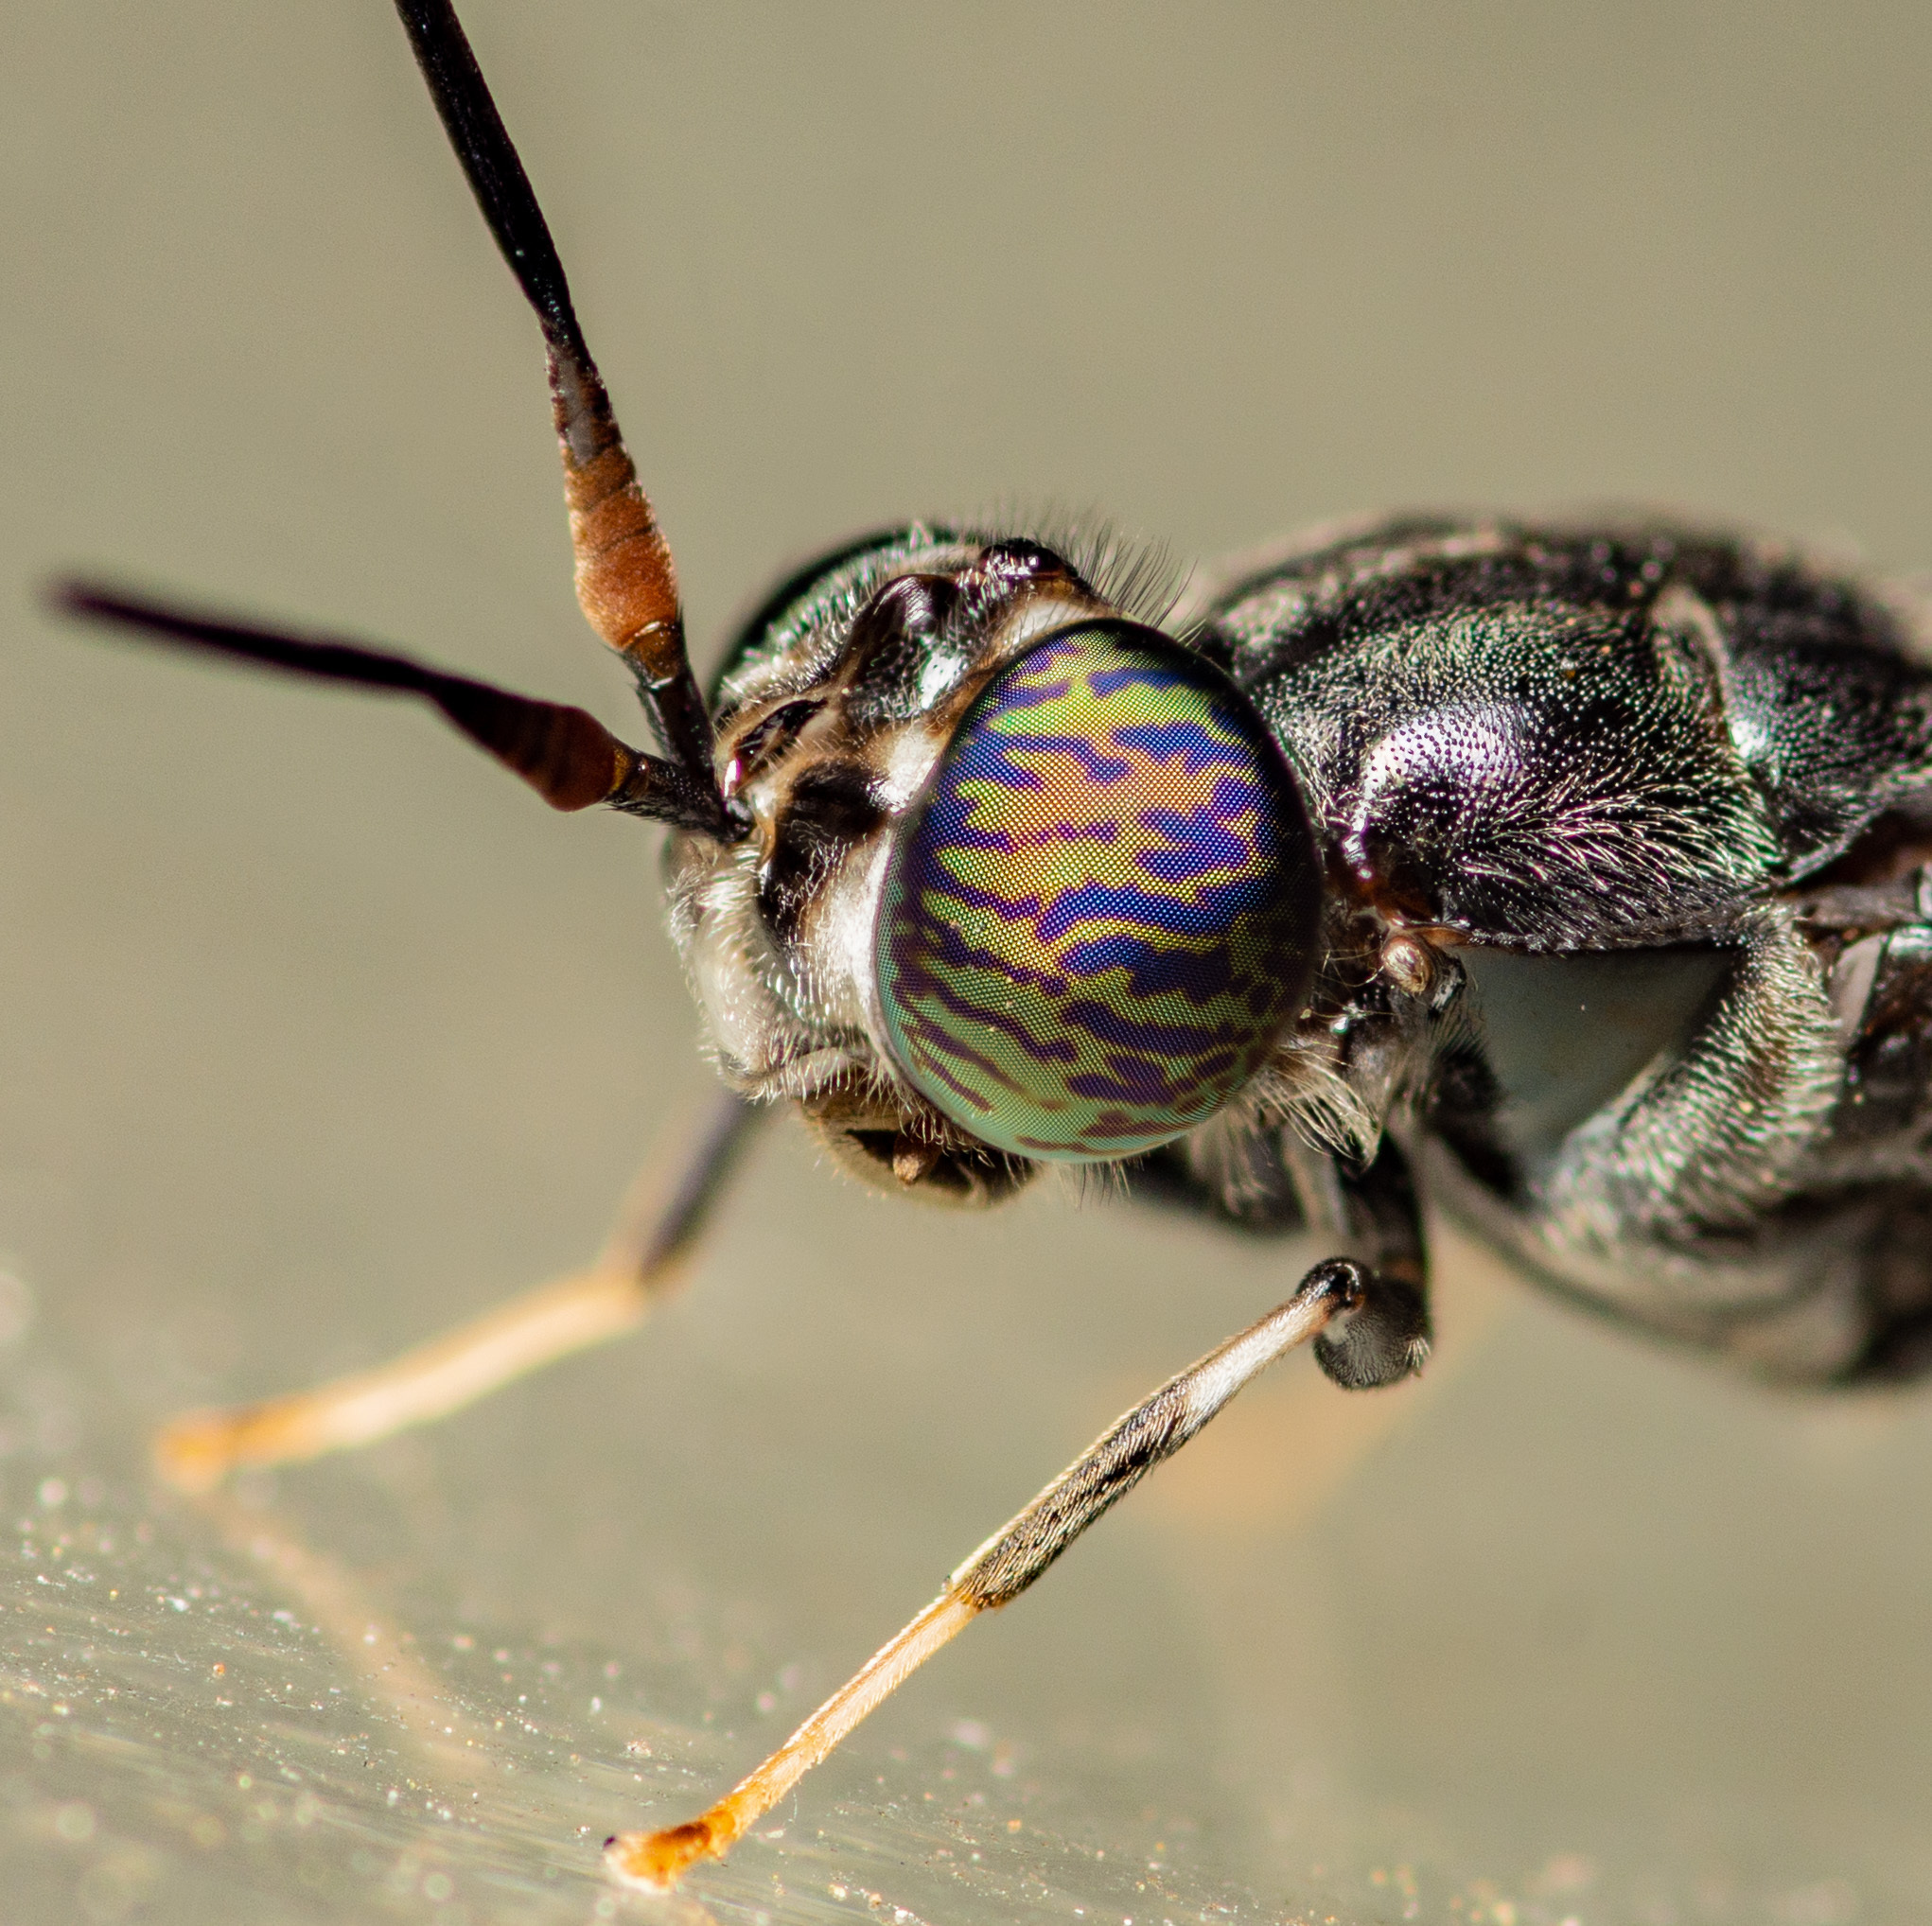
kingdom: Animalia
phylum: Arthropoda
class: Insecta
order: Diptera
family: Stratiomyidae
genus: Hermetia
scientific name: Hermetia illucens
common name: Black soldier fly
